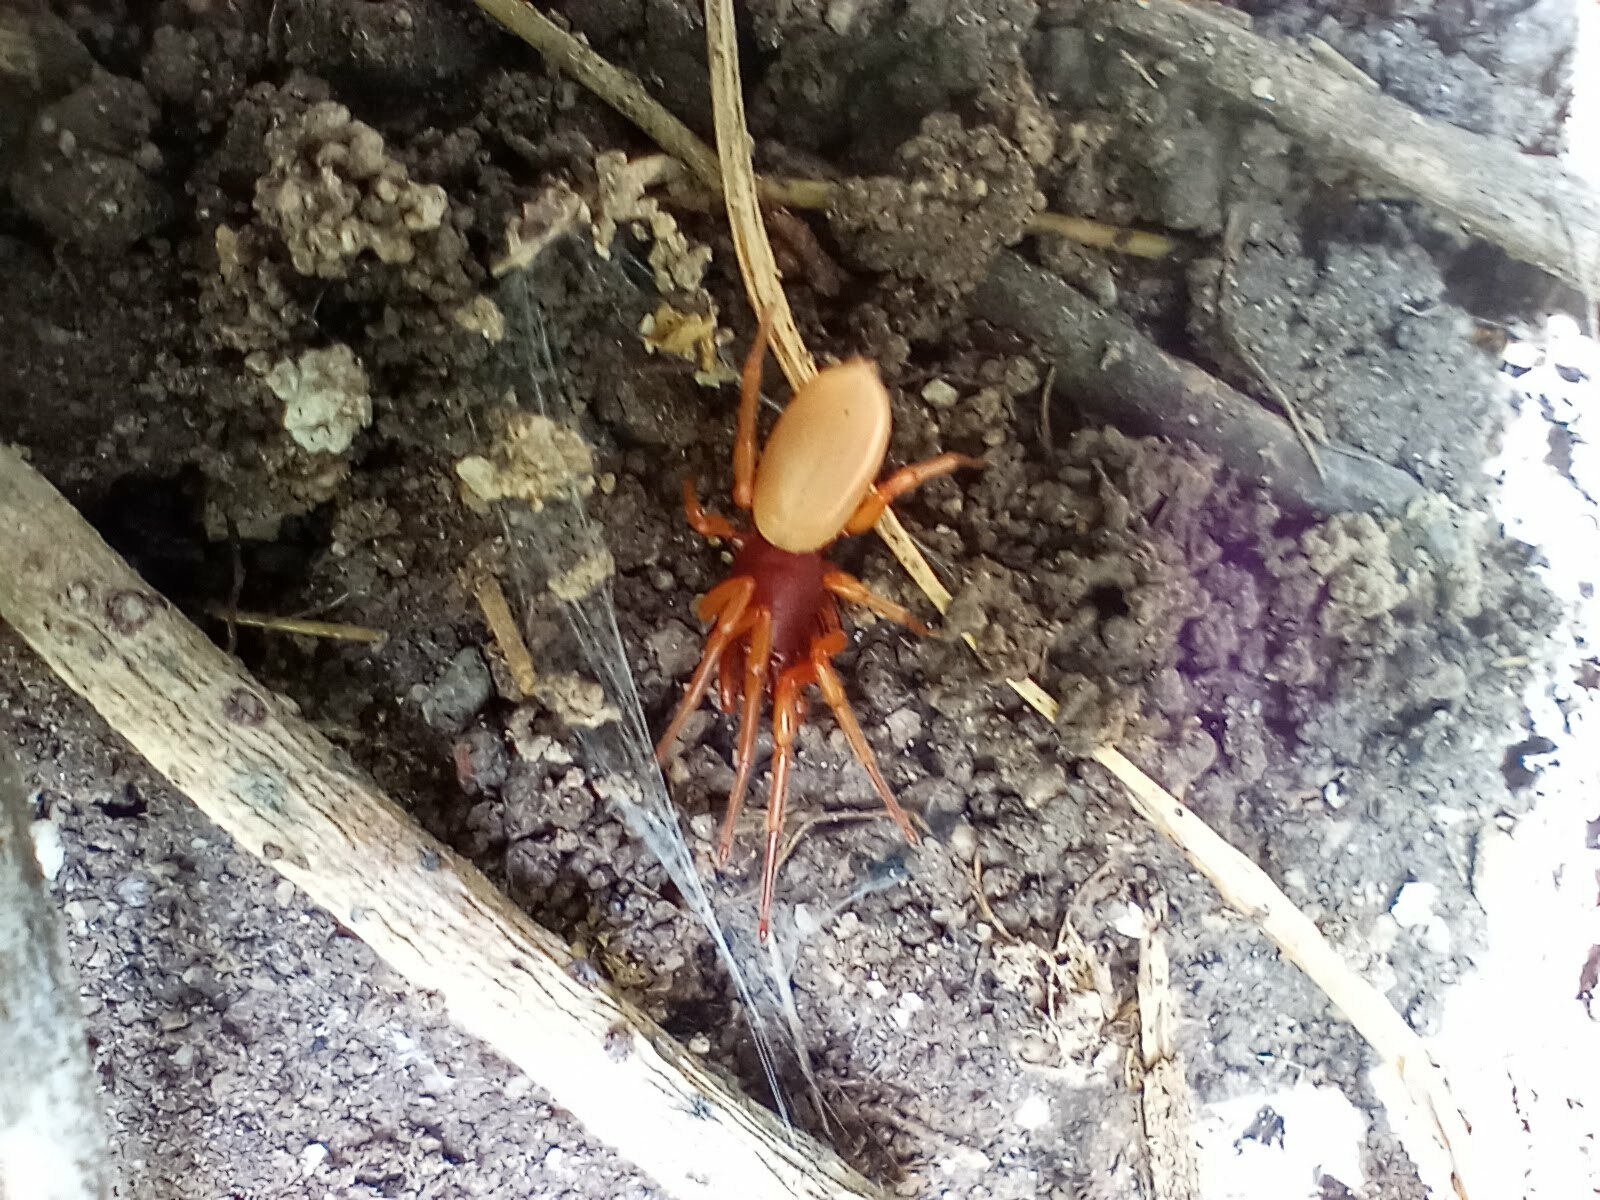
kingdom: Animalia
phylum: Arthropoda
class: Arachnida
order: Araneae
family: Dysderidae
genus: Dysdera
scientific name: Dysdera crocata
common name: Woodlouse spider
